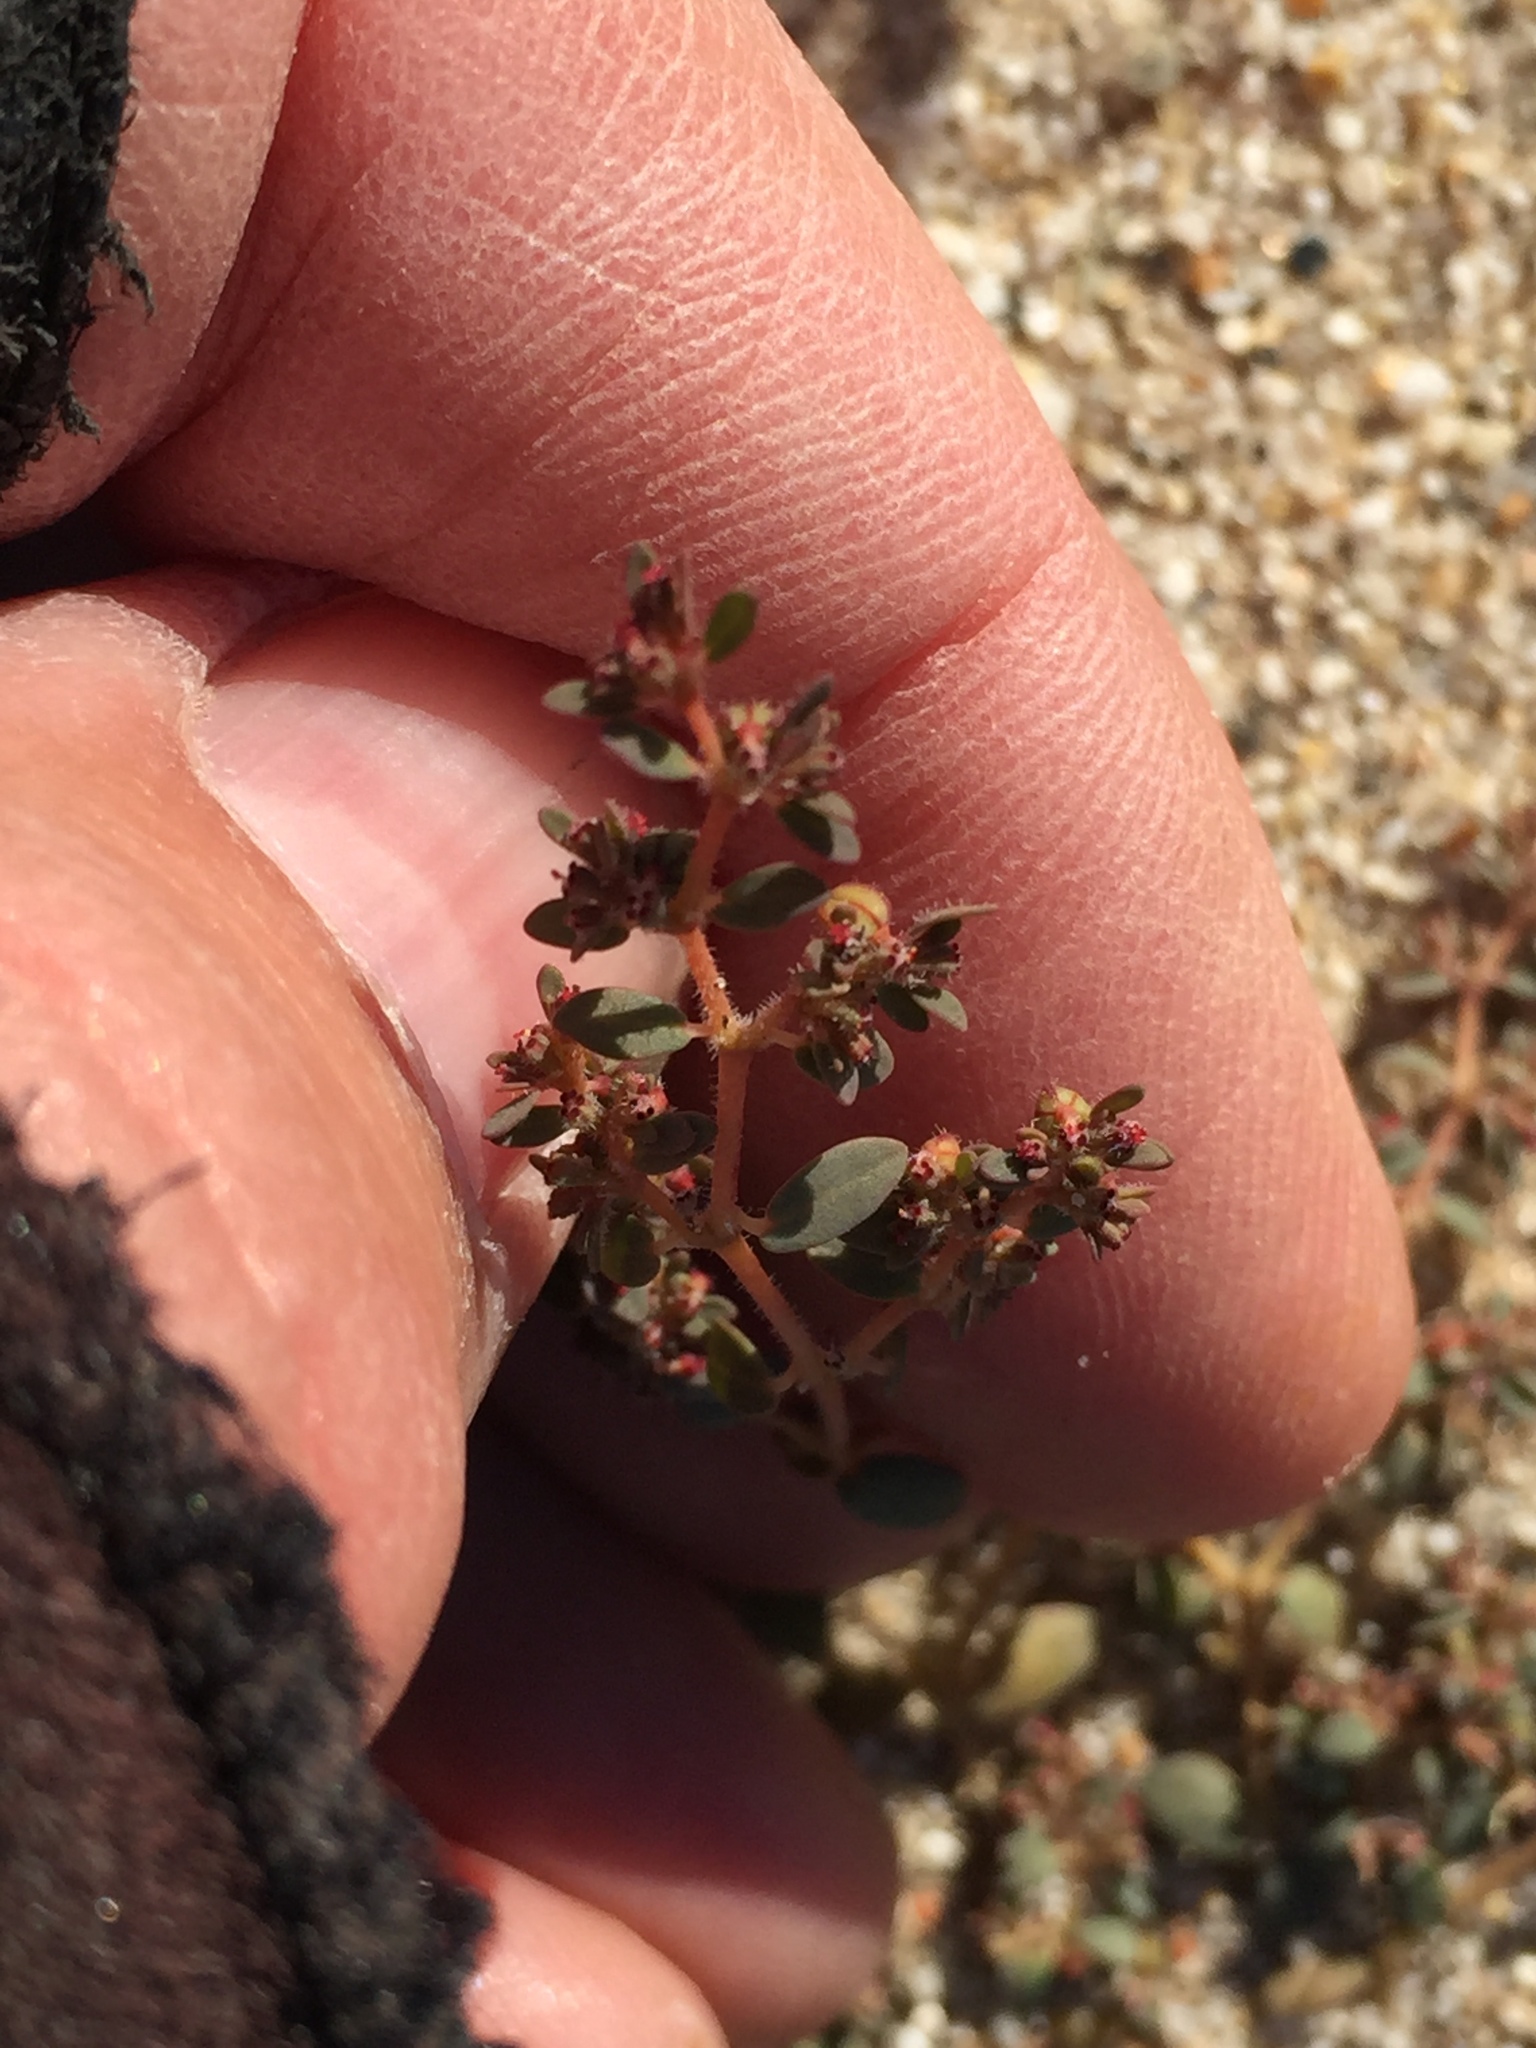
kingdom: Plantae
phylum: Tracheophyta
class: Magnoliopsida
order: Malpighiales
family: Euphorbiaceae
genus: Euphorbia
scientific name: Euphorbia micromera
